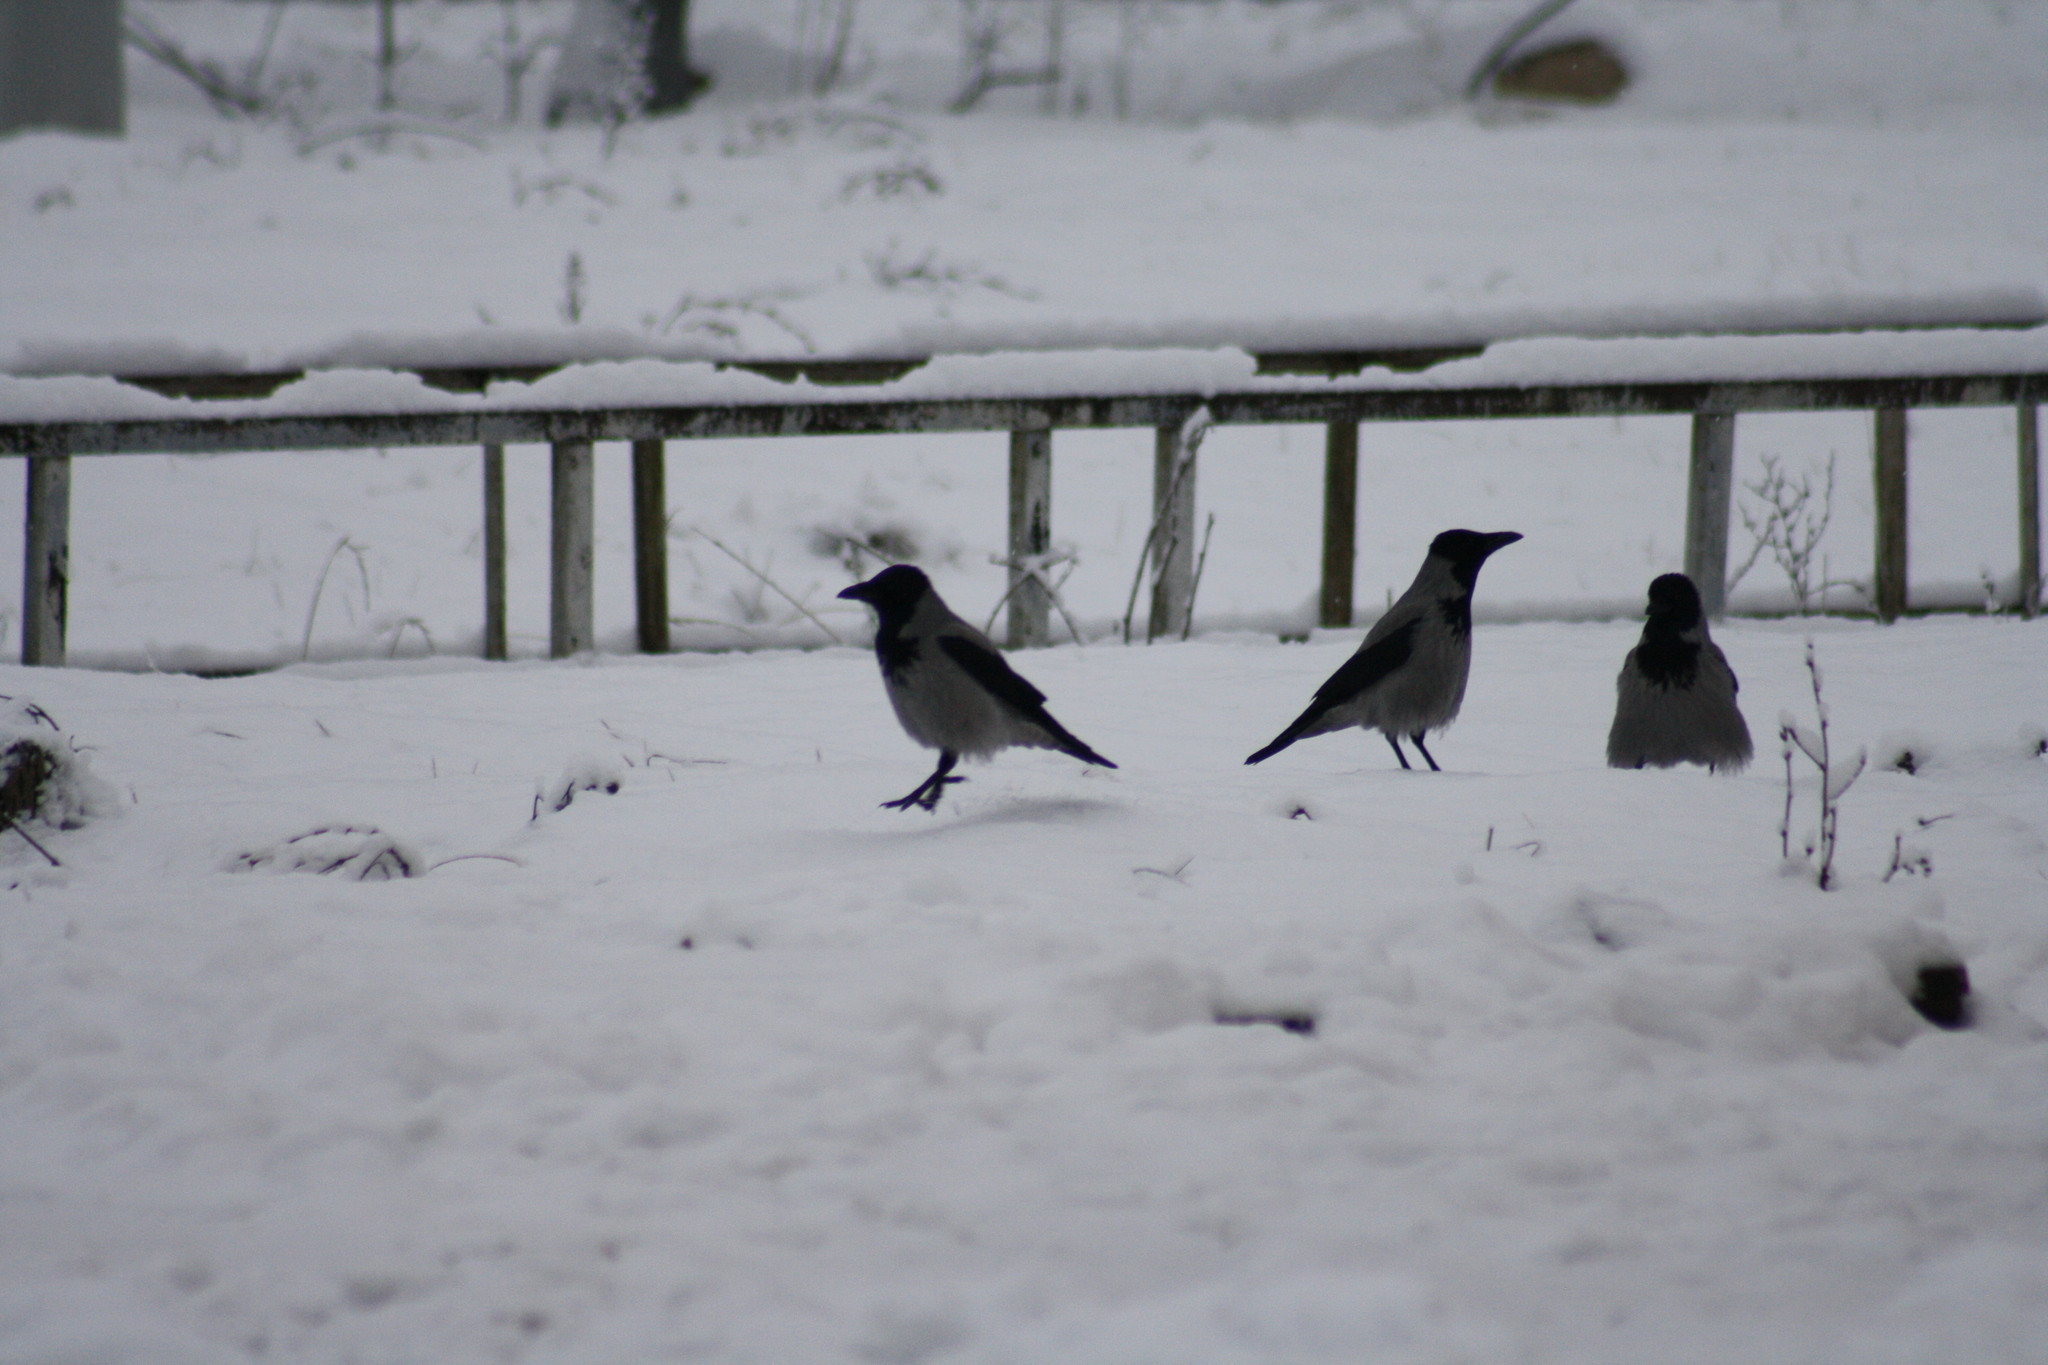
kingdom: Animalia
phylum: Chordata
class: Aves
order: Passeriformes
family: Corvidae
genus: Corvus
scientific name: Corvus cornix
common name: Hooded crow
